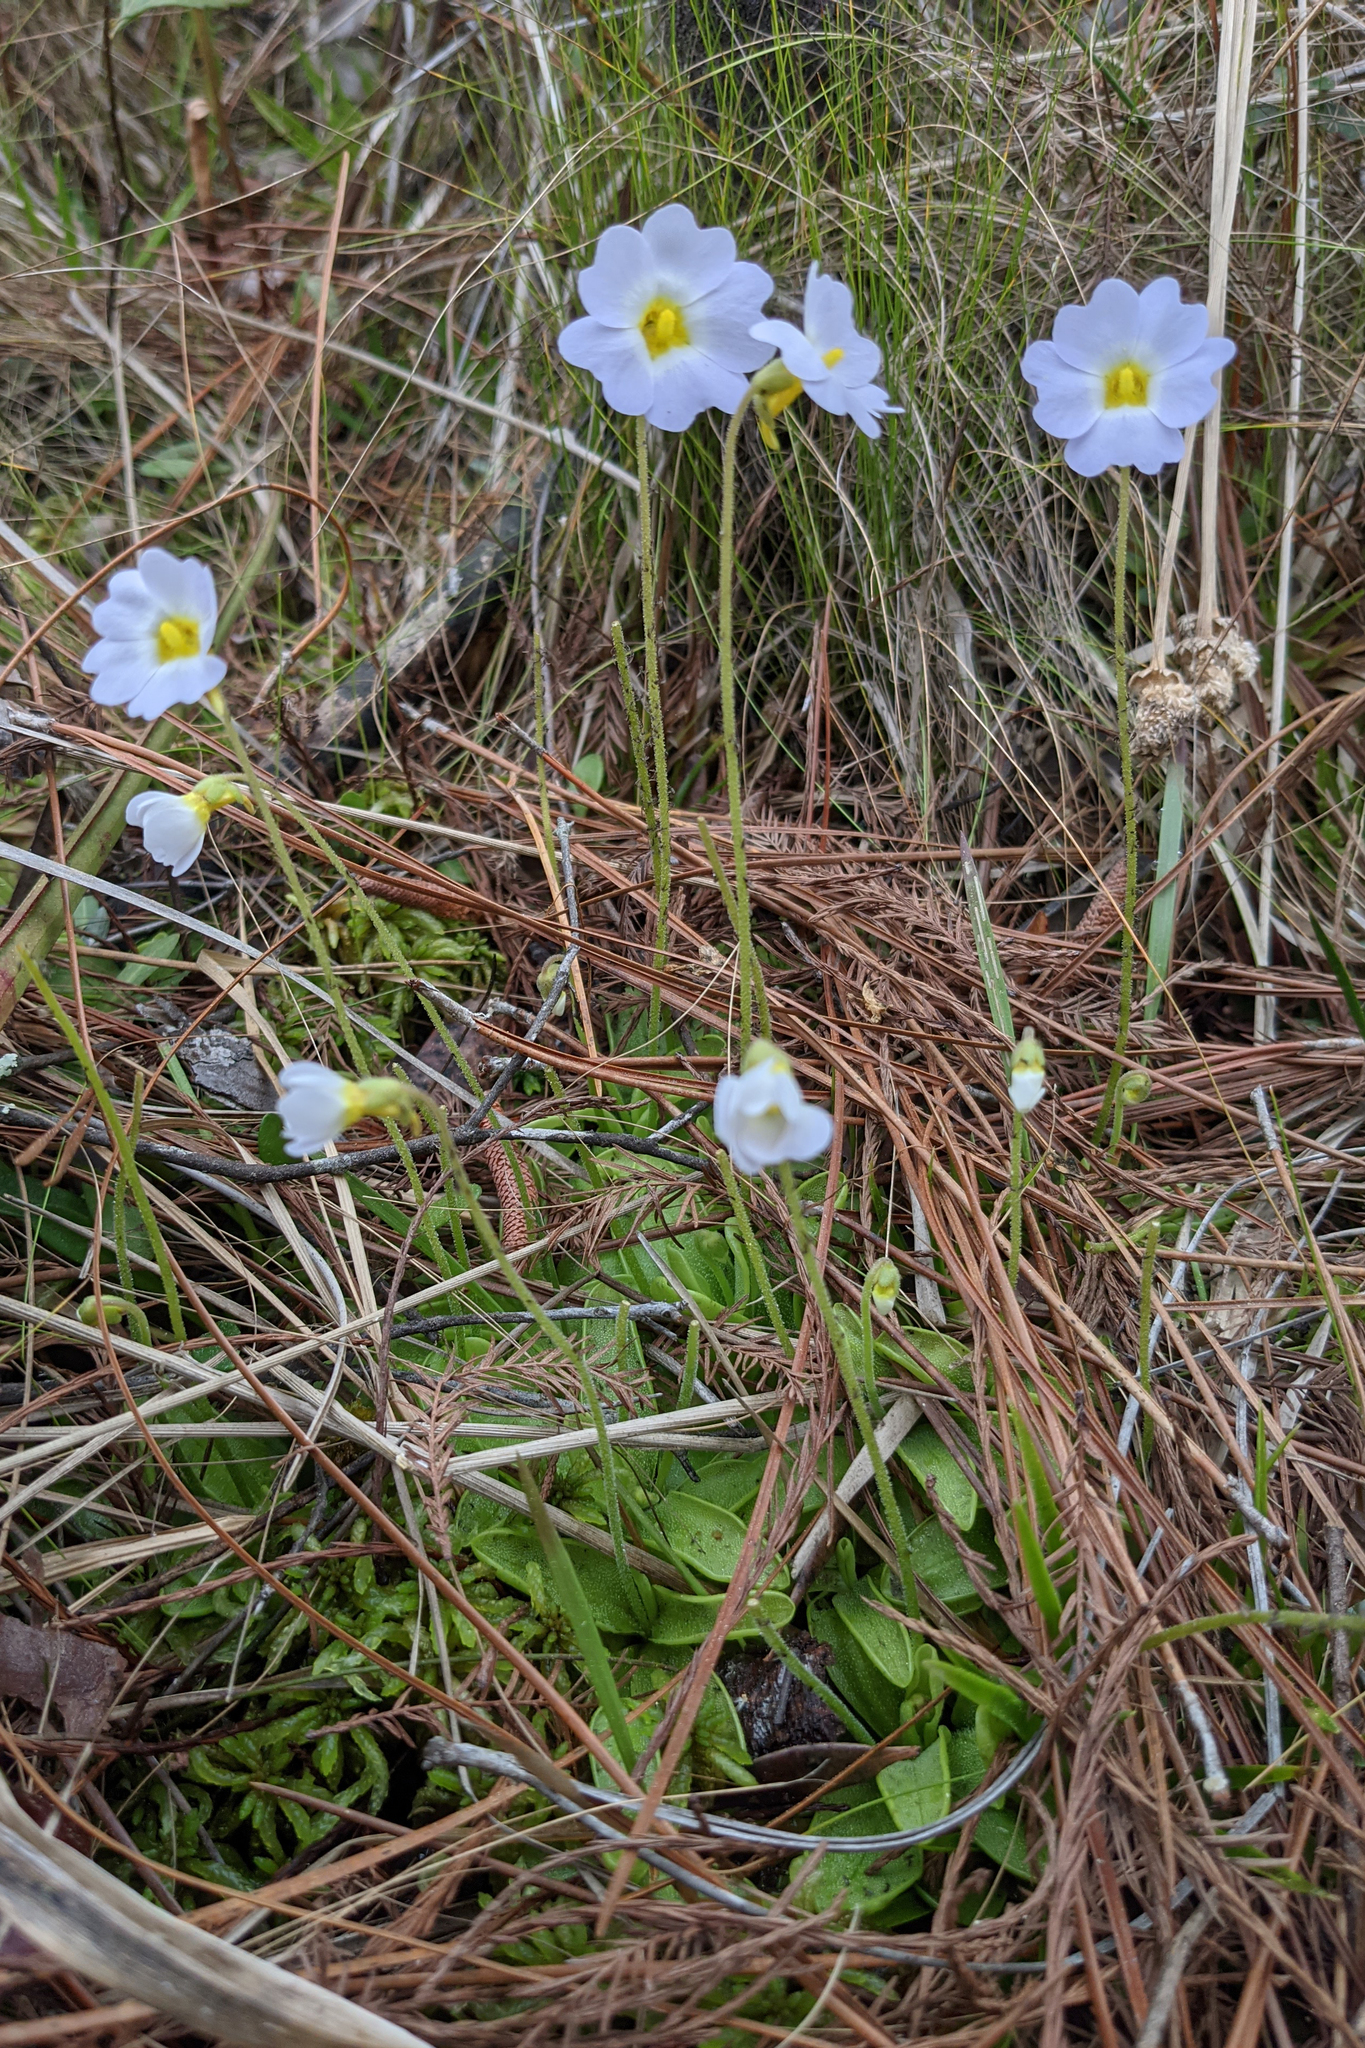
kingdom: Plantae
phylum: Tracheophyta
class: Magnoliopsida
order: Lamiales
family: Lentibulariaceae
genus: Pinguicula
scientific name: Pinguicula primuliflora
